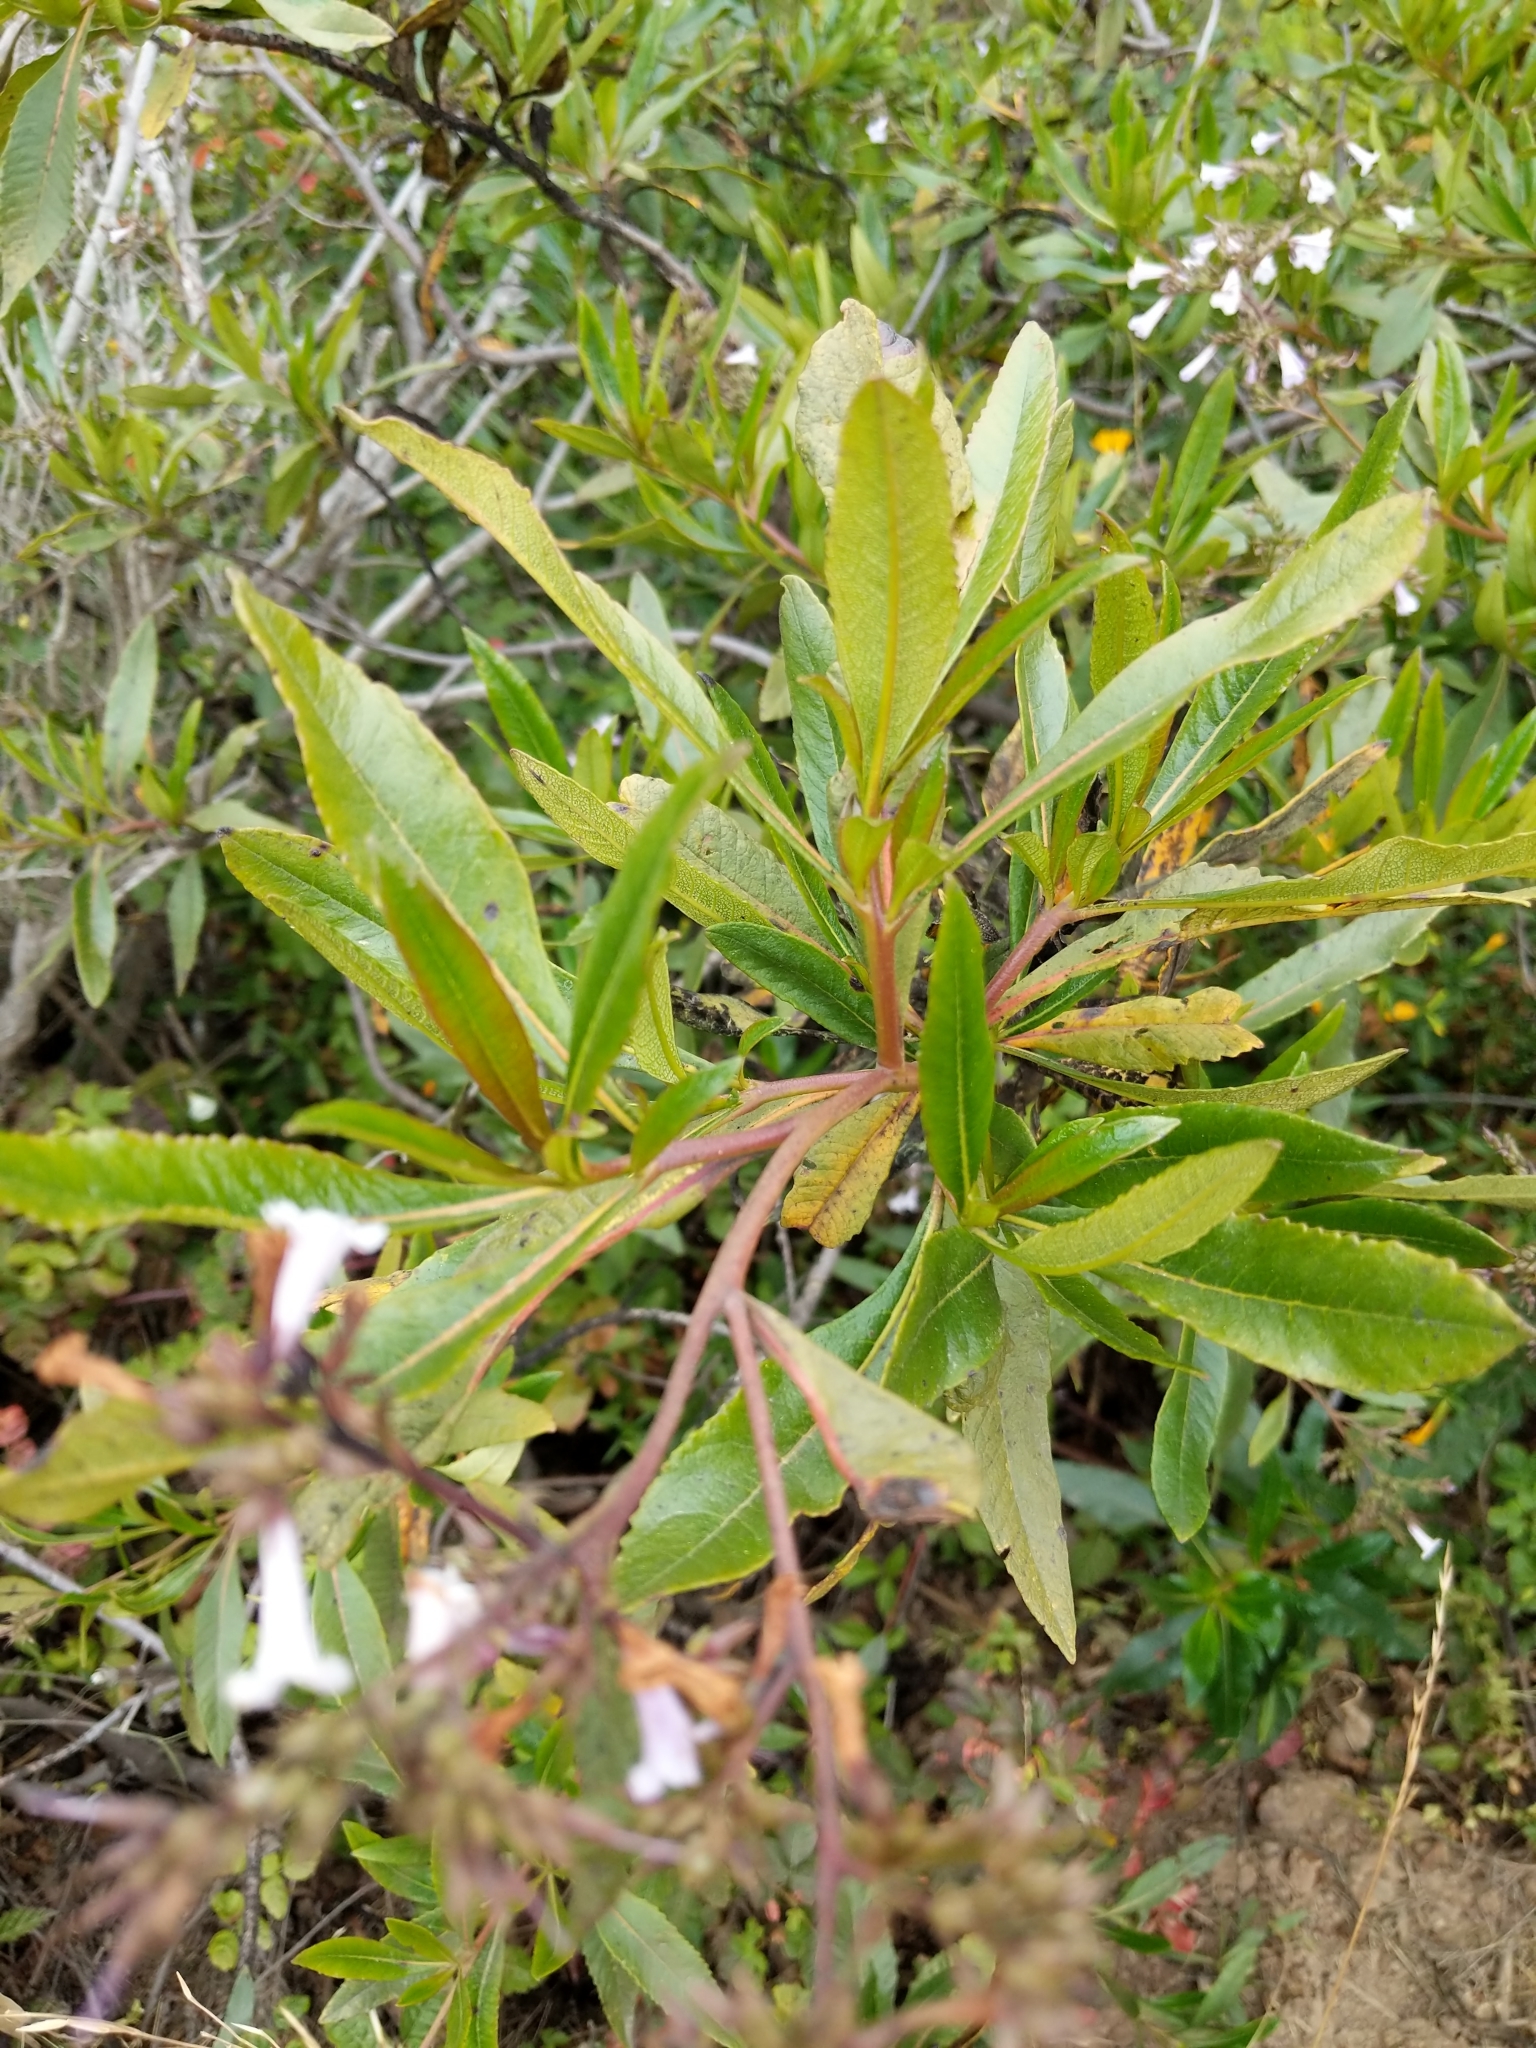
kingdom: Plantae
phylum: Tracheophyta
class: Magnoliopsida
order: Boraginales
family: Namaceae
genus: Eriodictyon
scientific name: Eriodictyon californicum
